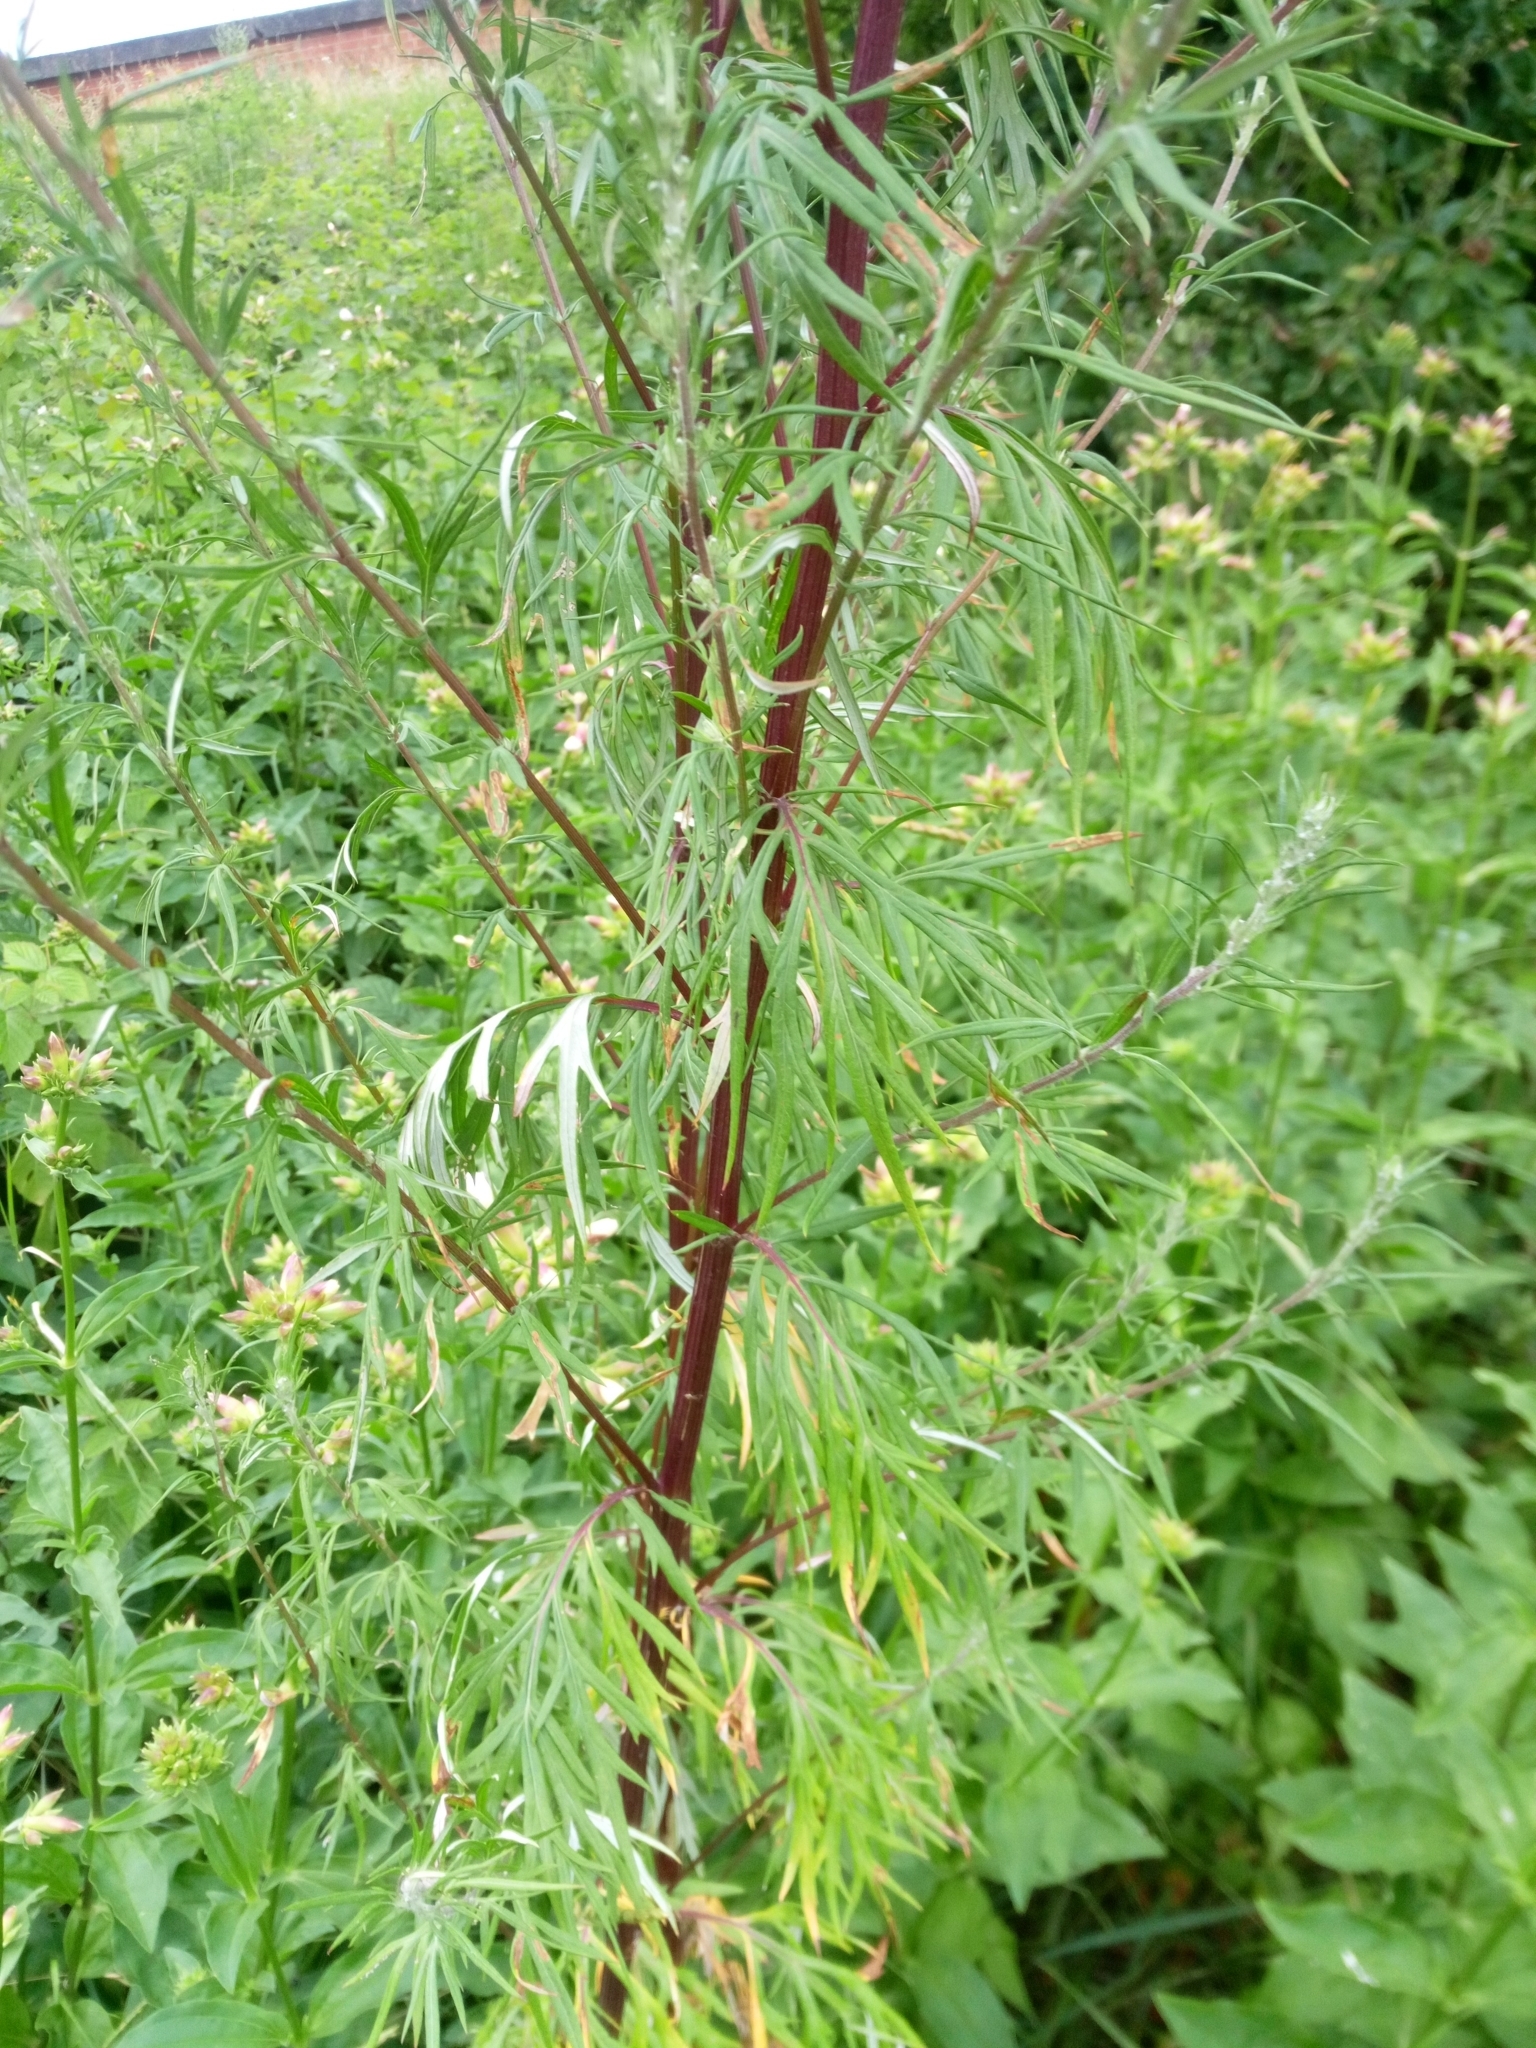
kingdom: Plantae
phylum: Tracheophyta
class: Magnoliopsida
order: Asterales
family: Asteraceae
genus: Artemisia
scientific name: Artemisia vulgaris
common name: Mugwort
